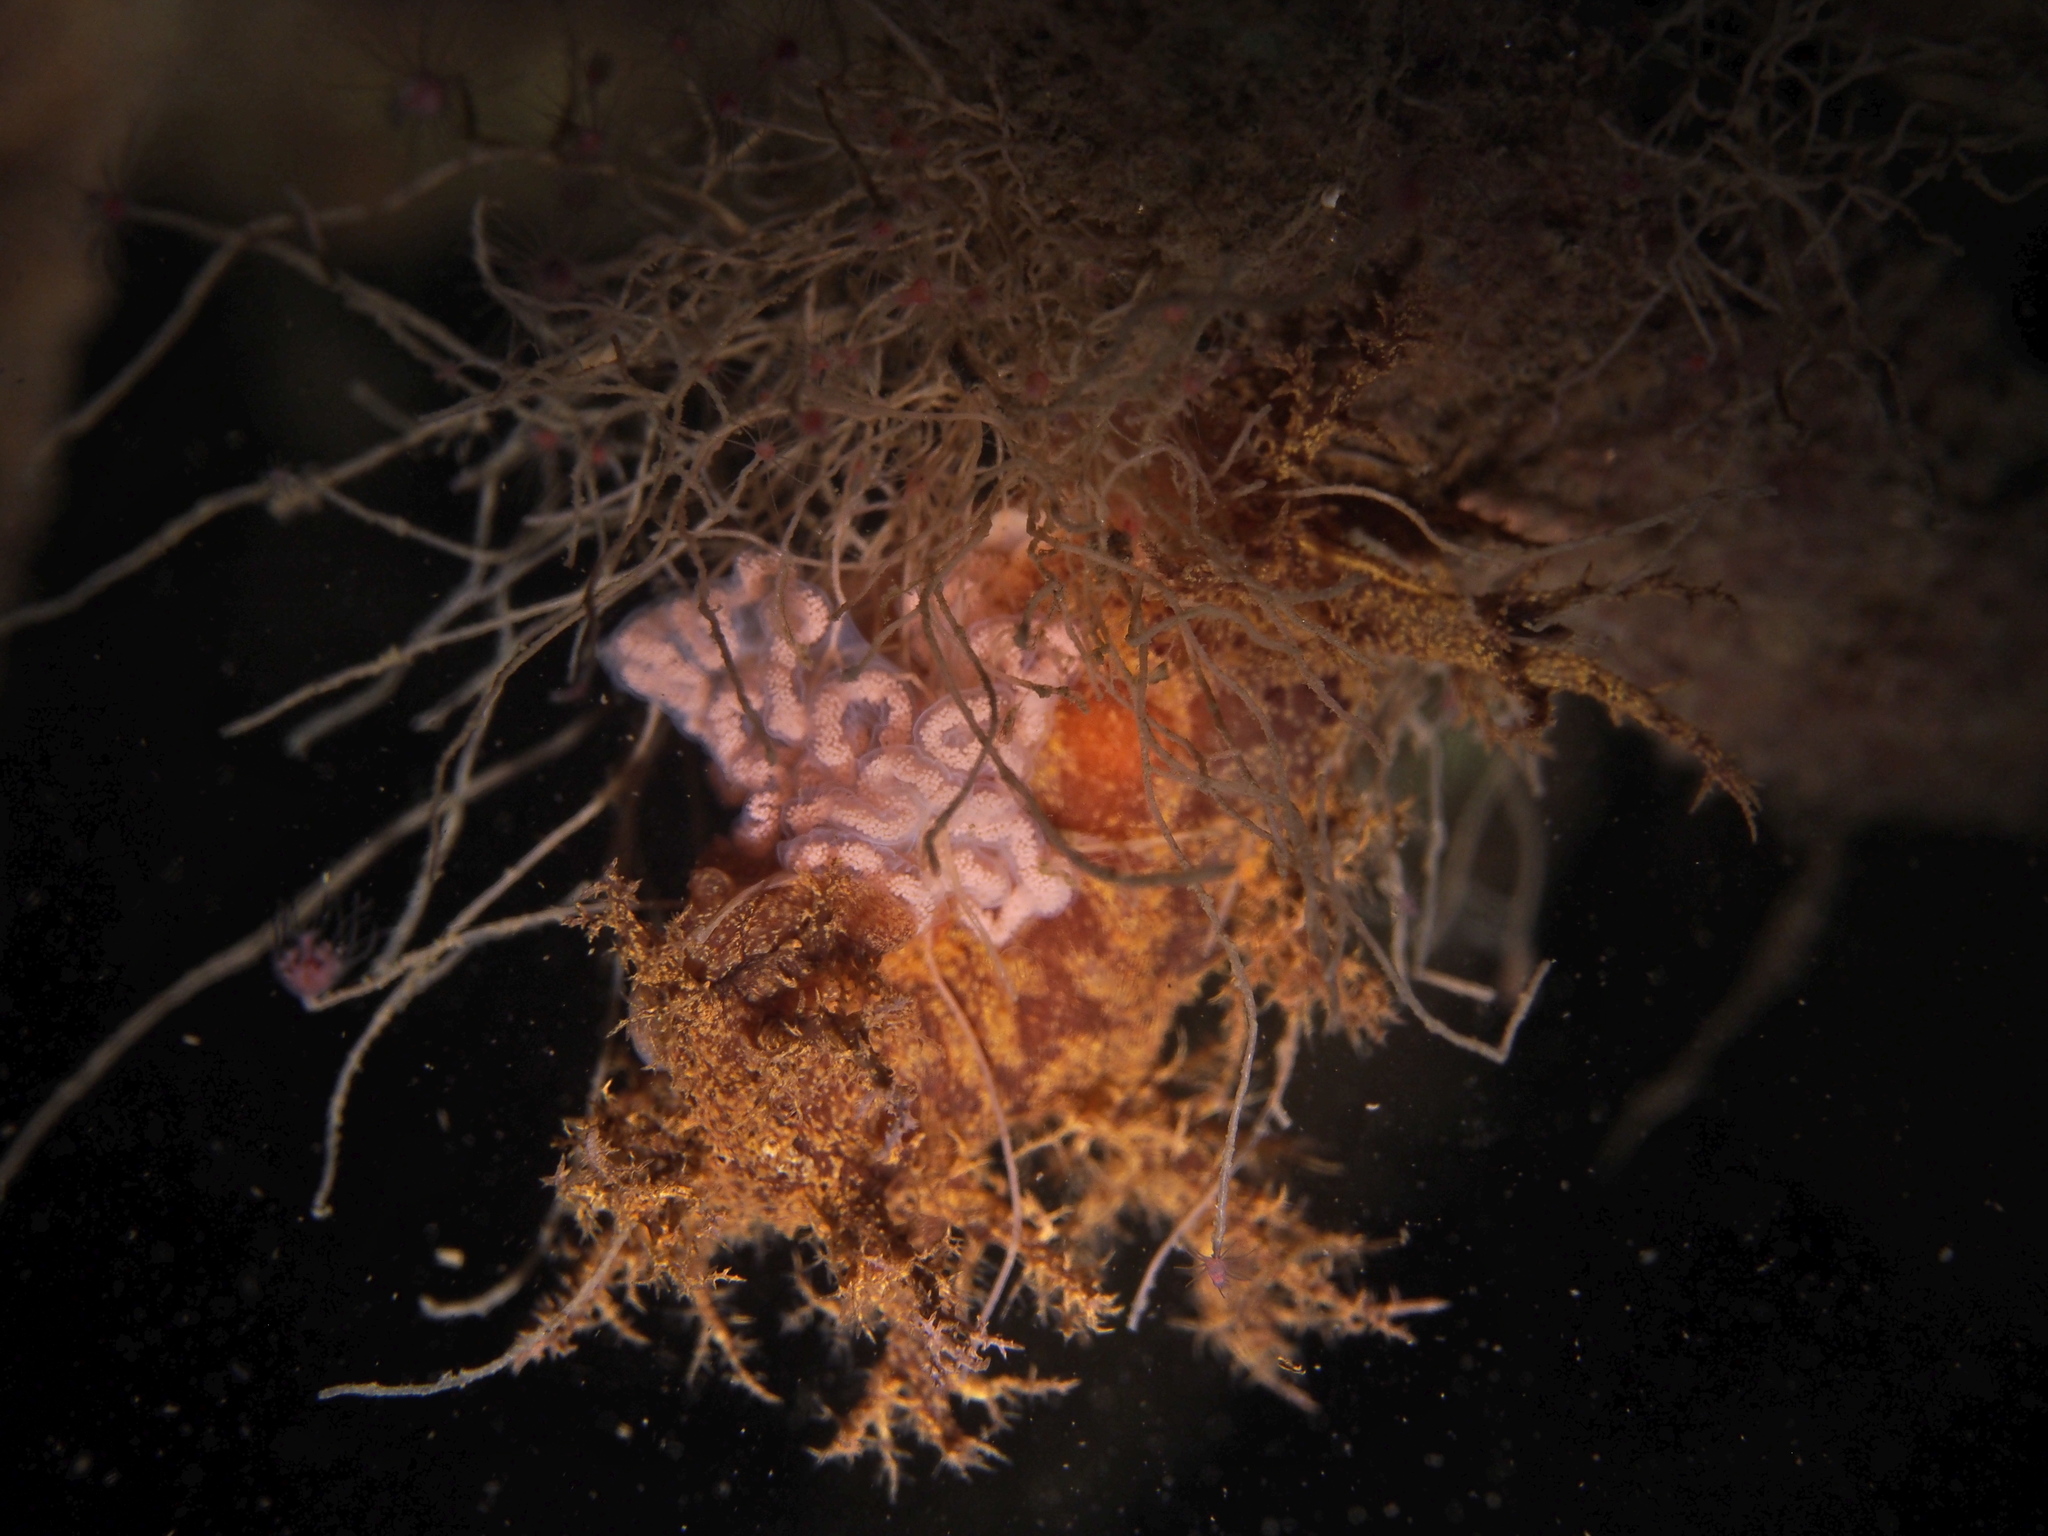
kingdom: Animalia
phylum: Mollusca
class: Gastropoda
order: Nudibranchia
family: Dendronotidae
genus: Dendronotus
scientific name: Dendronotus europaeus
